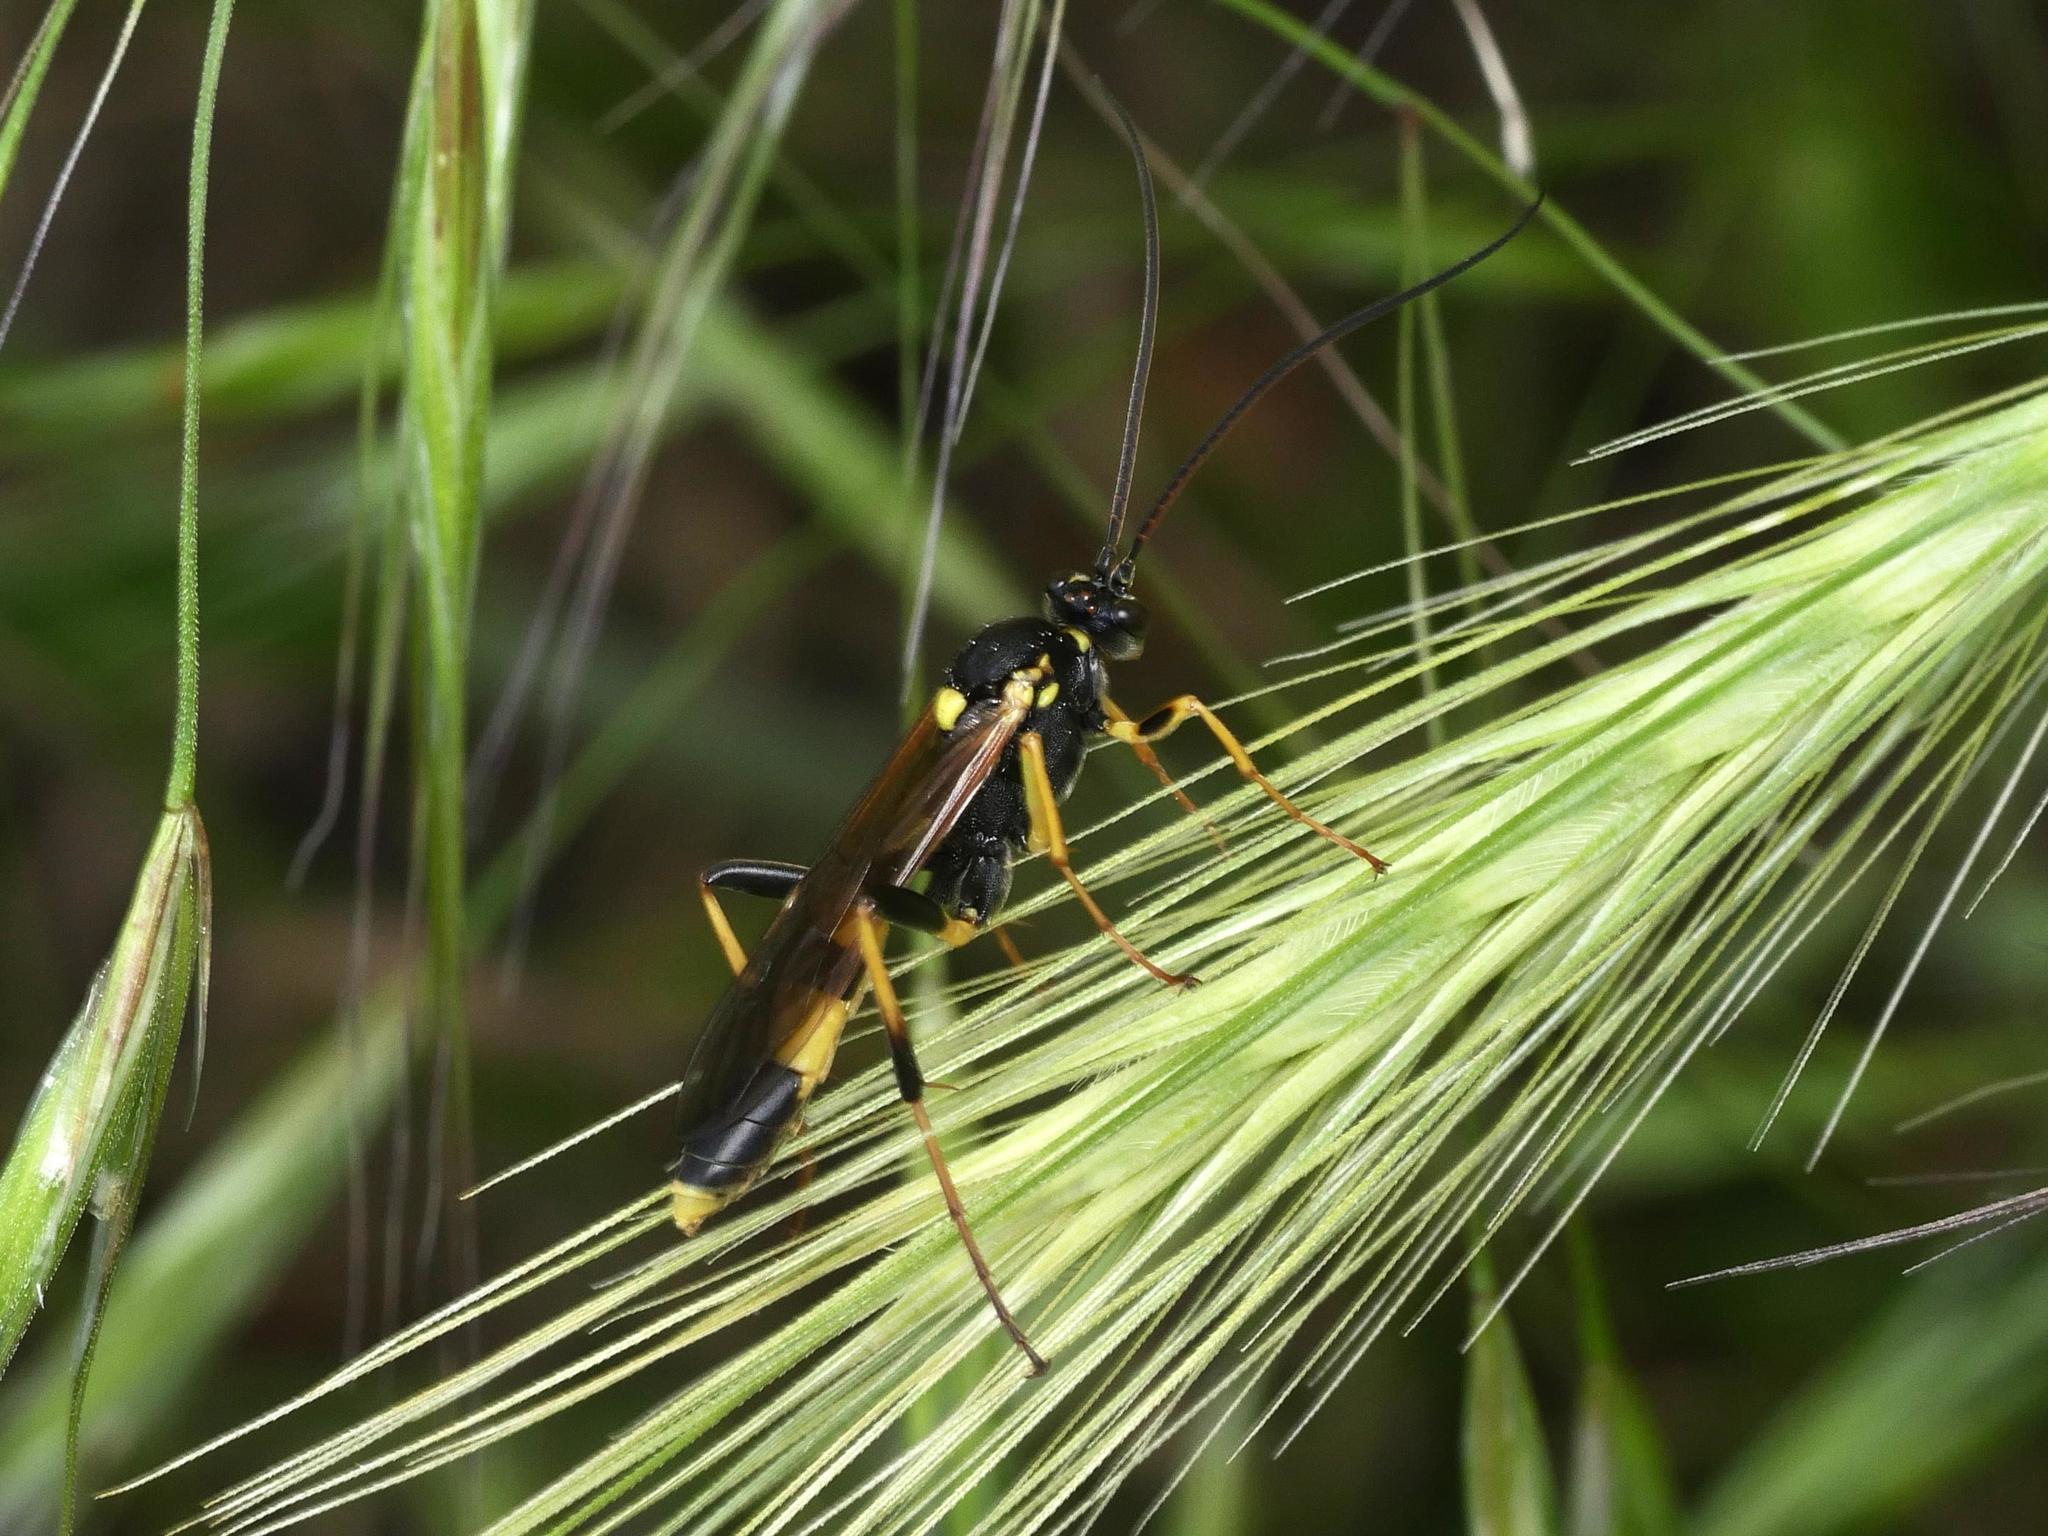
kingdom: Animalia
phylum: Arthropoda
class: Insecta
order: Hymenoptera
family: Ichneumonidae
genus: Amblyteles
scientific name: Amblyteles armatorius
